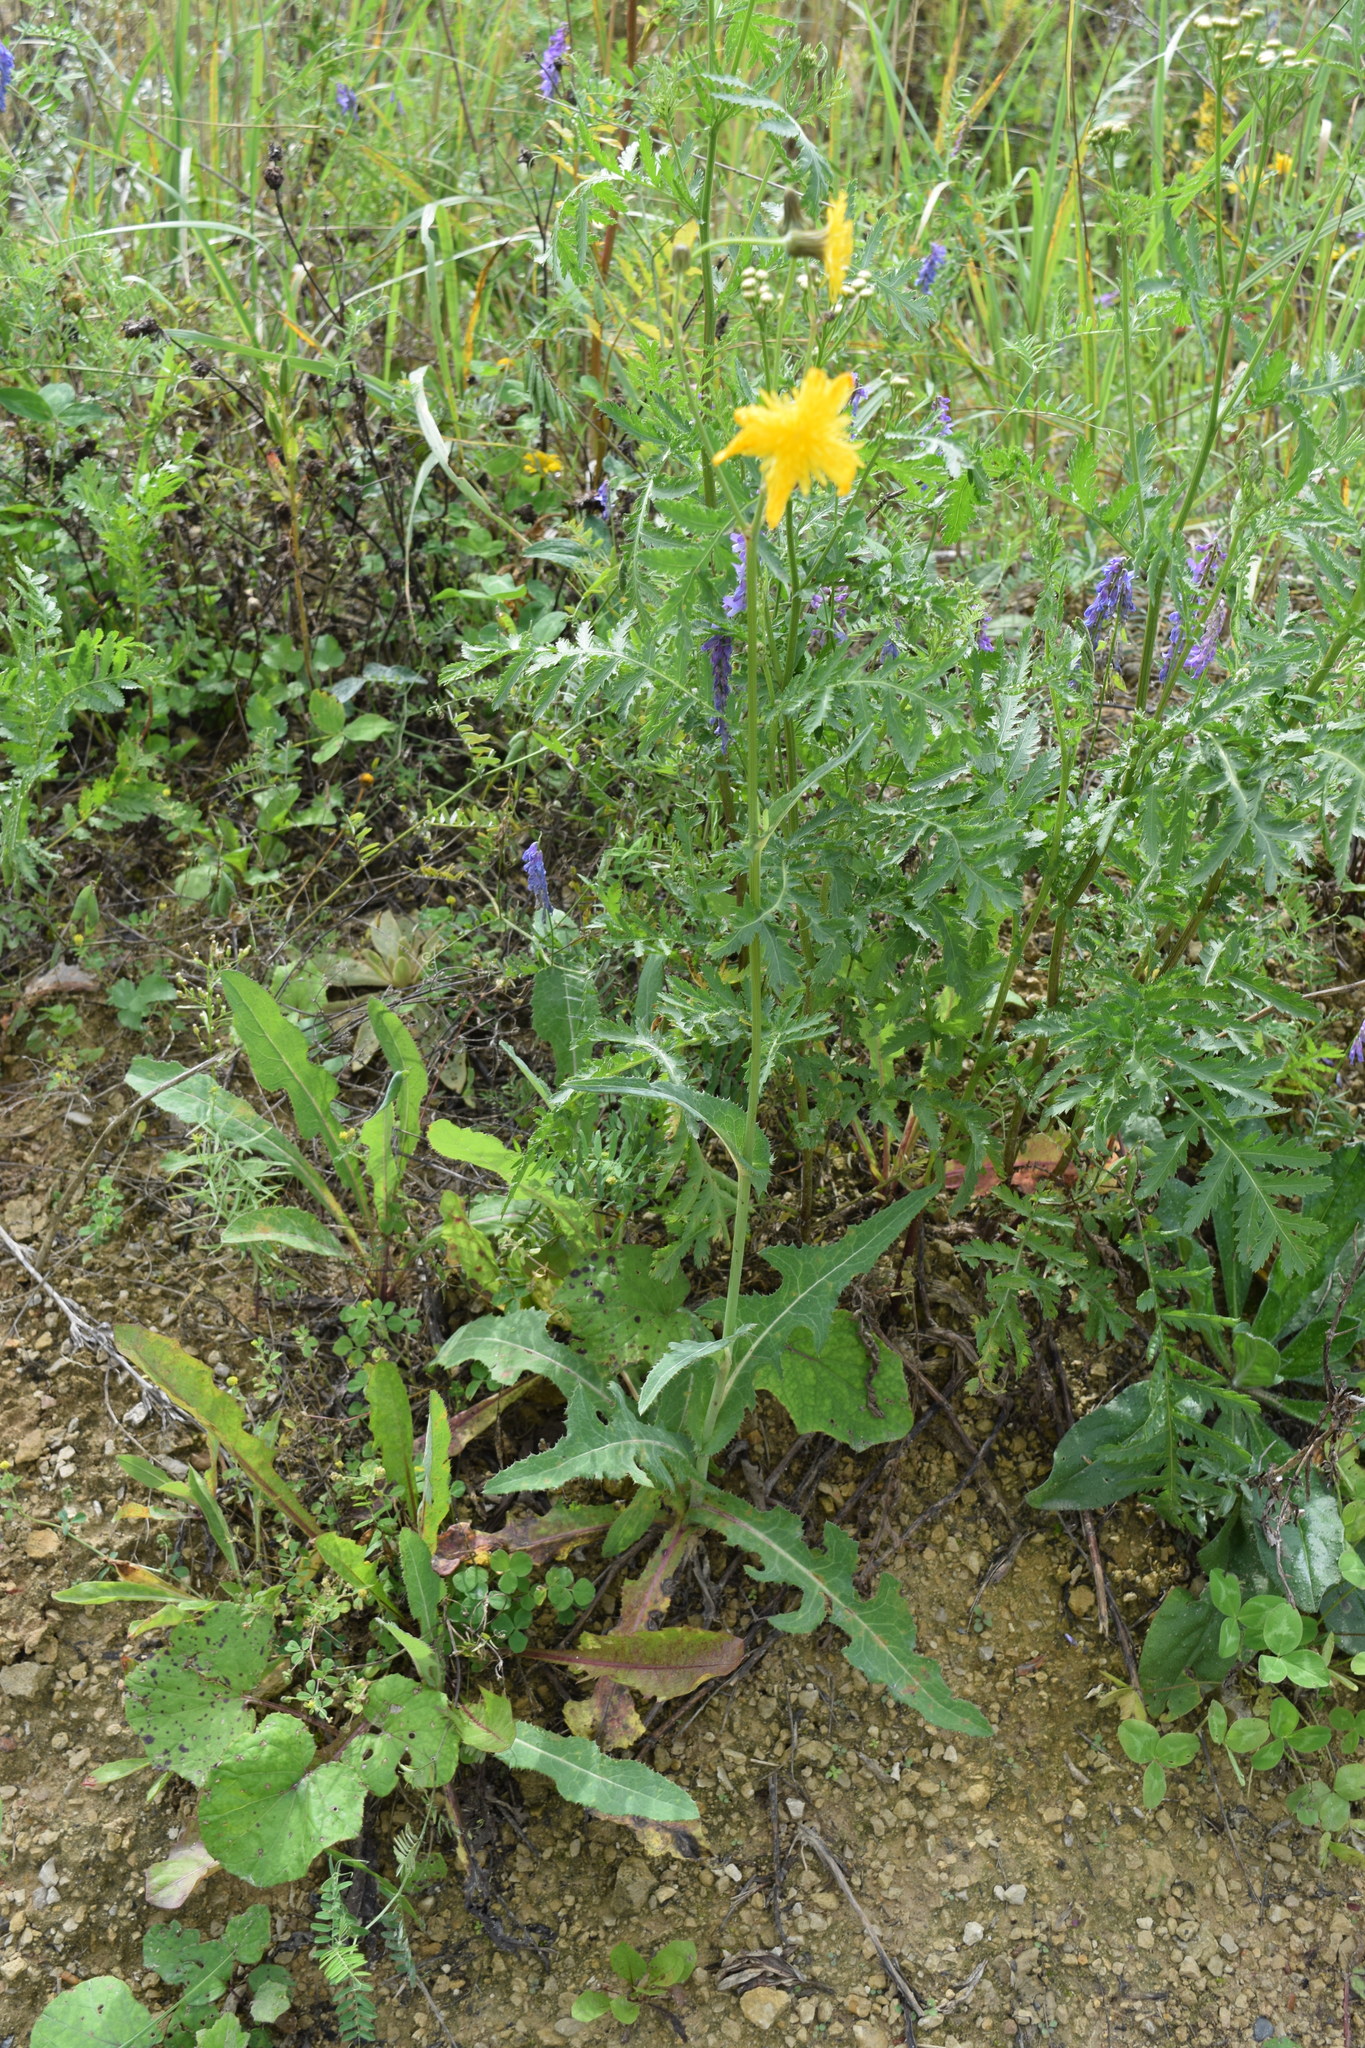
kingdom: Plantae
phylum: Tracheophyta
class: Magnoliopsida
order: Asterales
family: Asteraceae
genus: Sonchus
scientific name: Sonchus arvensis
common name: Perennial sow-thistle
